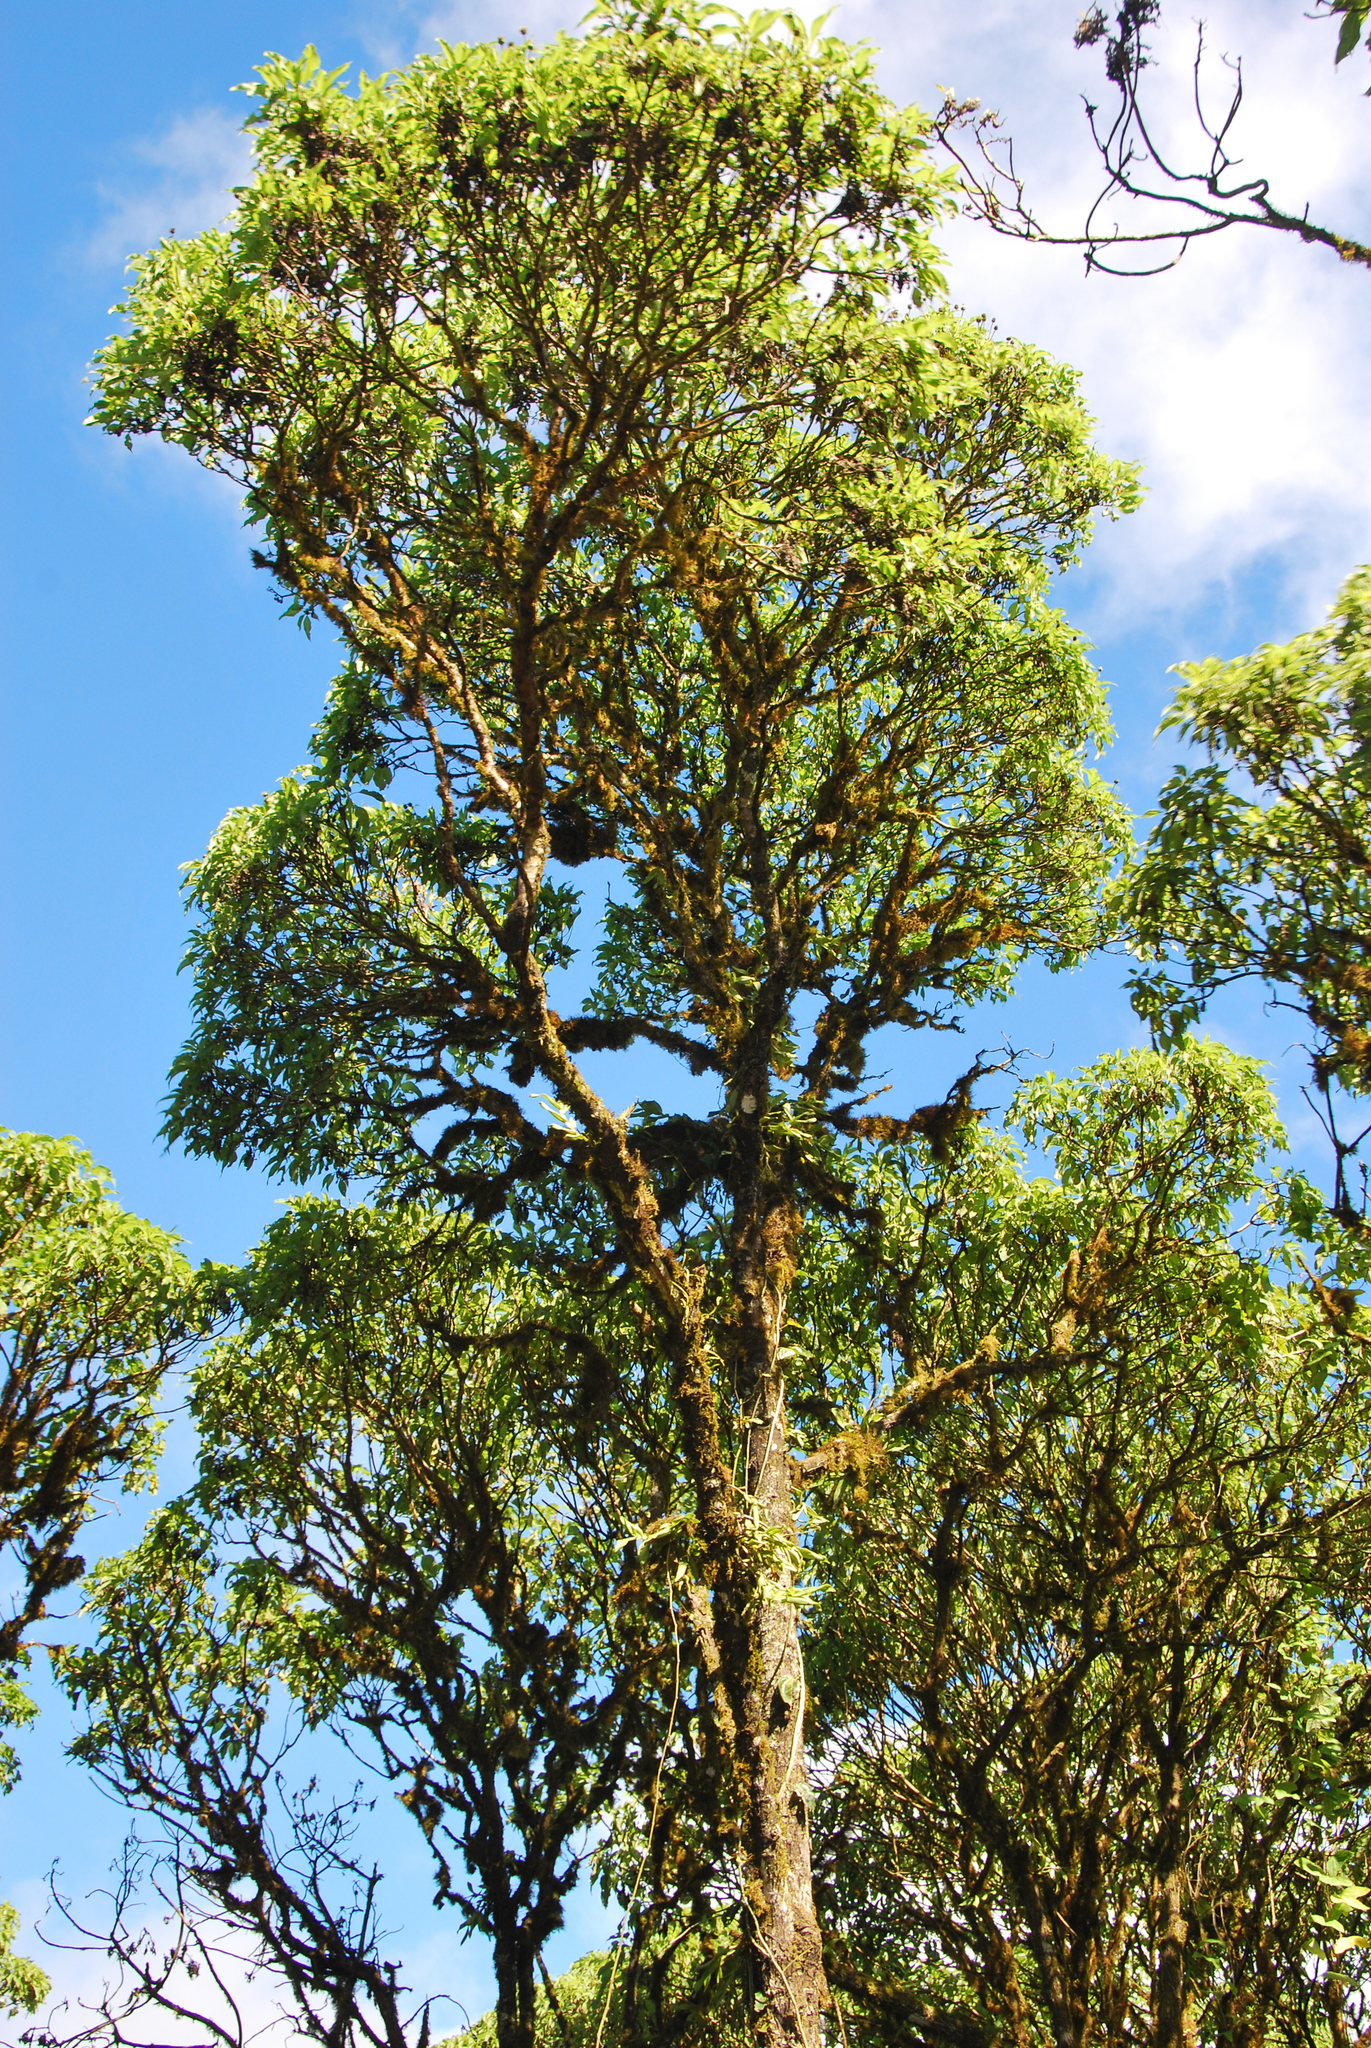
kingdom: Plantae
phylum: Tracheophyta
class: Magnoliopsida
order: Asterales
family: Asteraceae
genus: Scalesia
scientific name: Scalesia pedunculata
